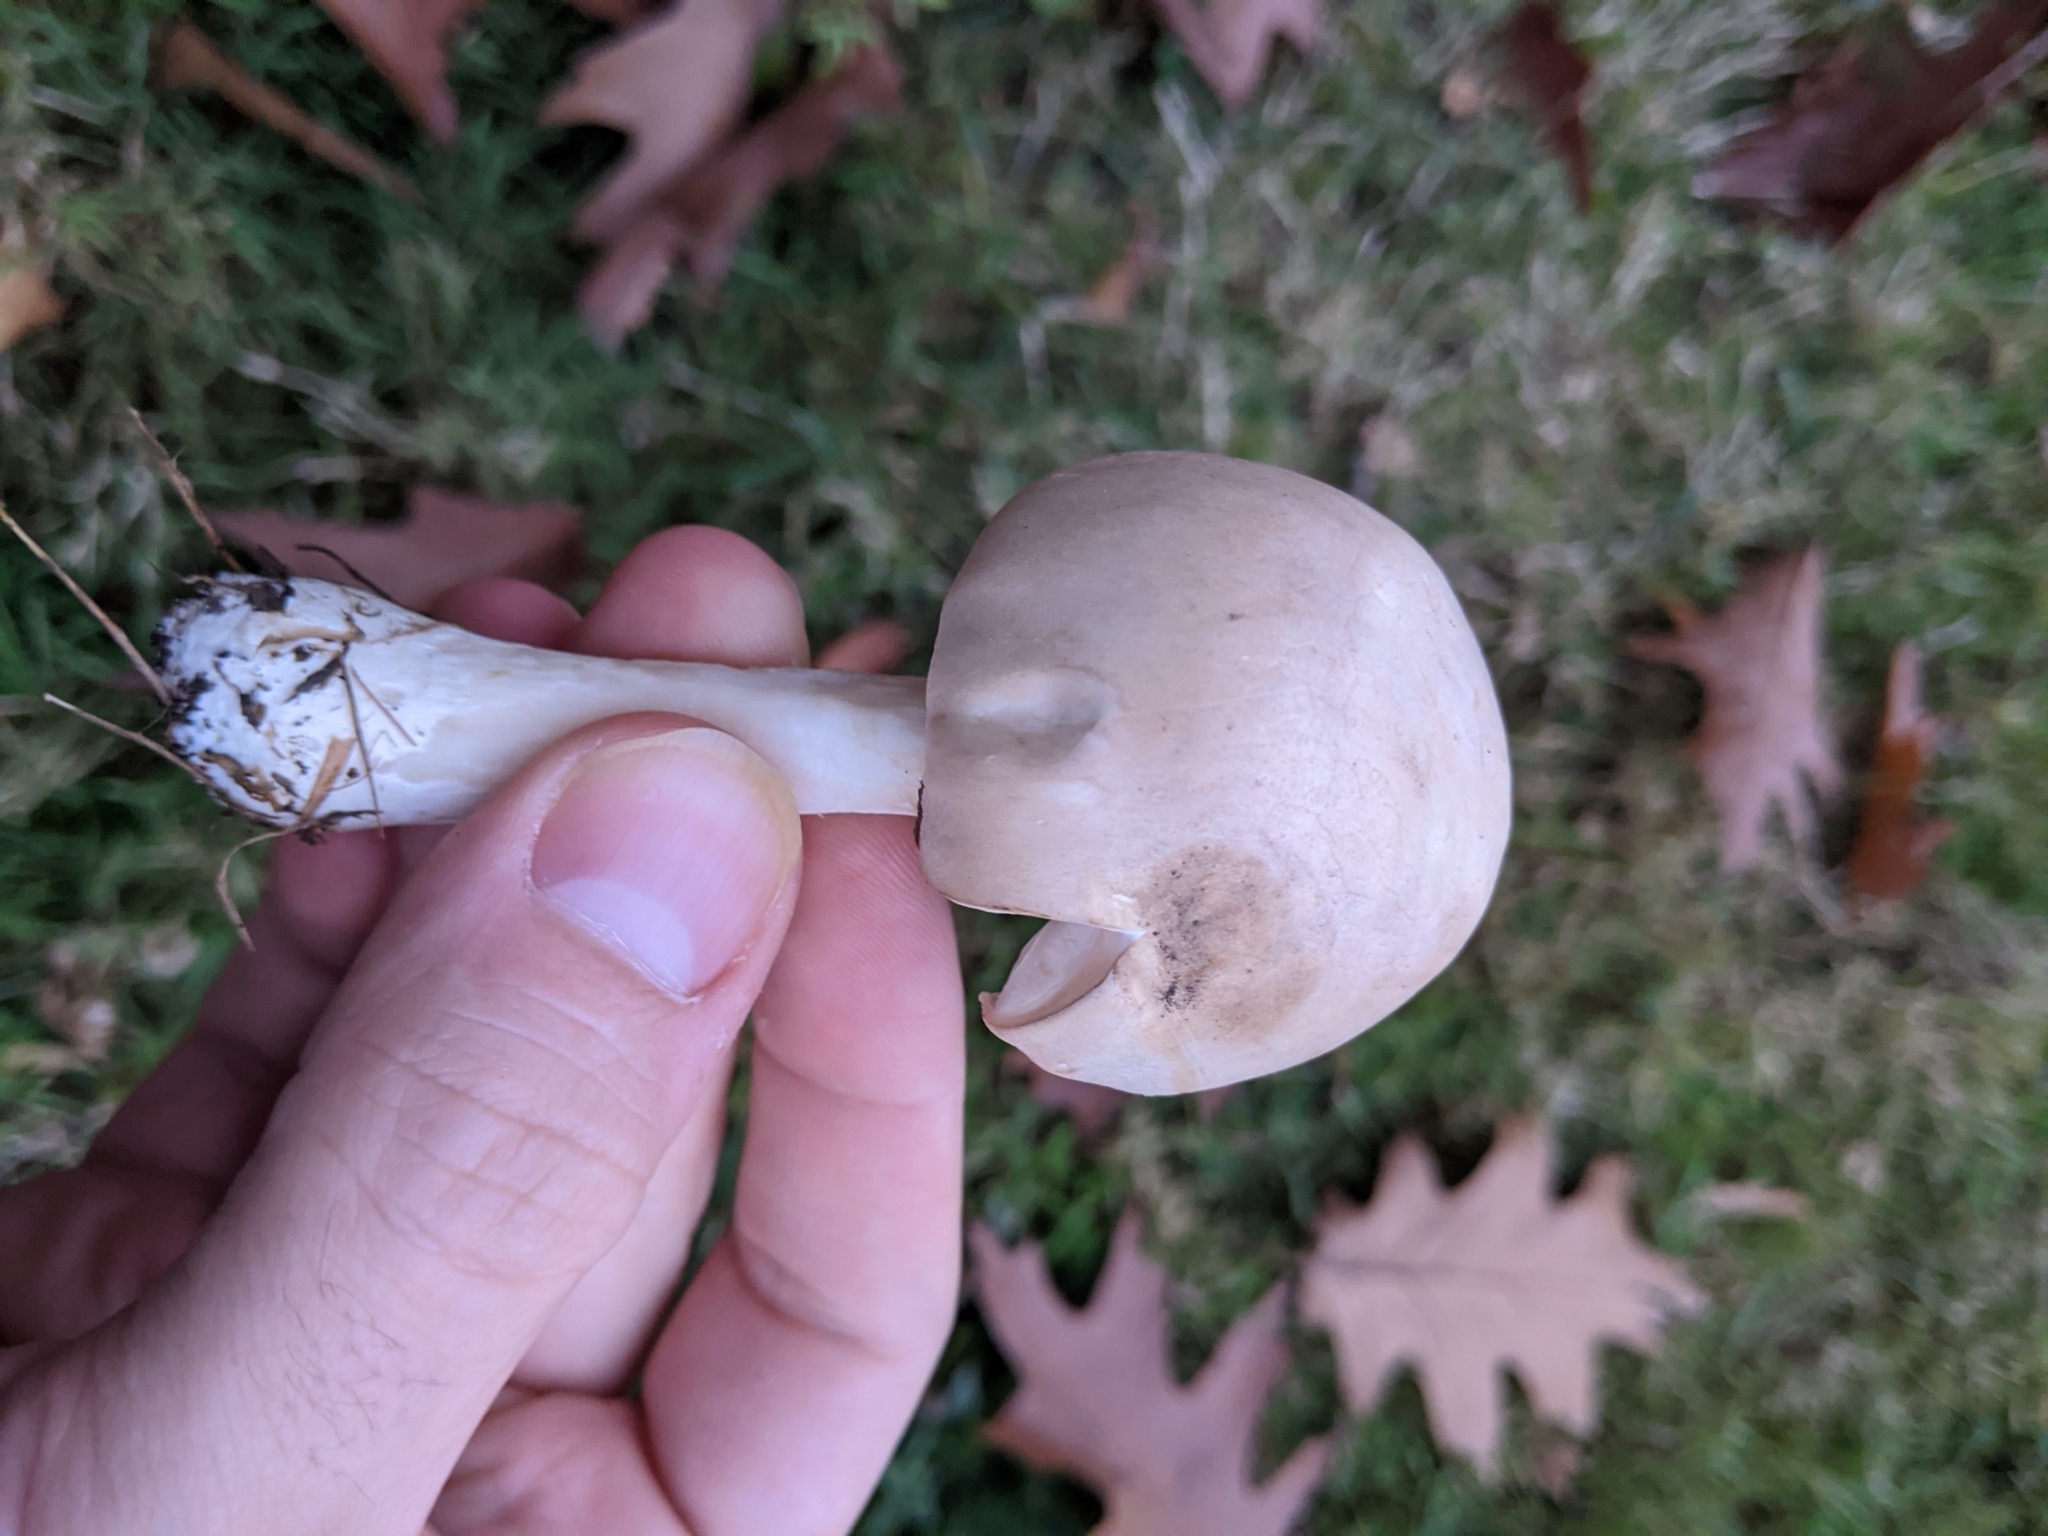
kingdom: Fungi
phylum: Basidiomycota
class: Agaricomycetes
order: Agaricales
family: Agaricaceae
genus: Leucoagaricus
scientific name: Leucoagaricus leucothites
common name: White dapperling
